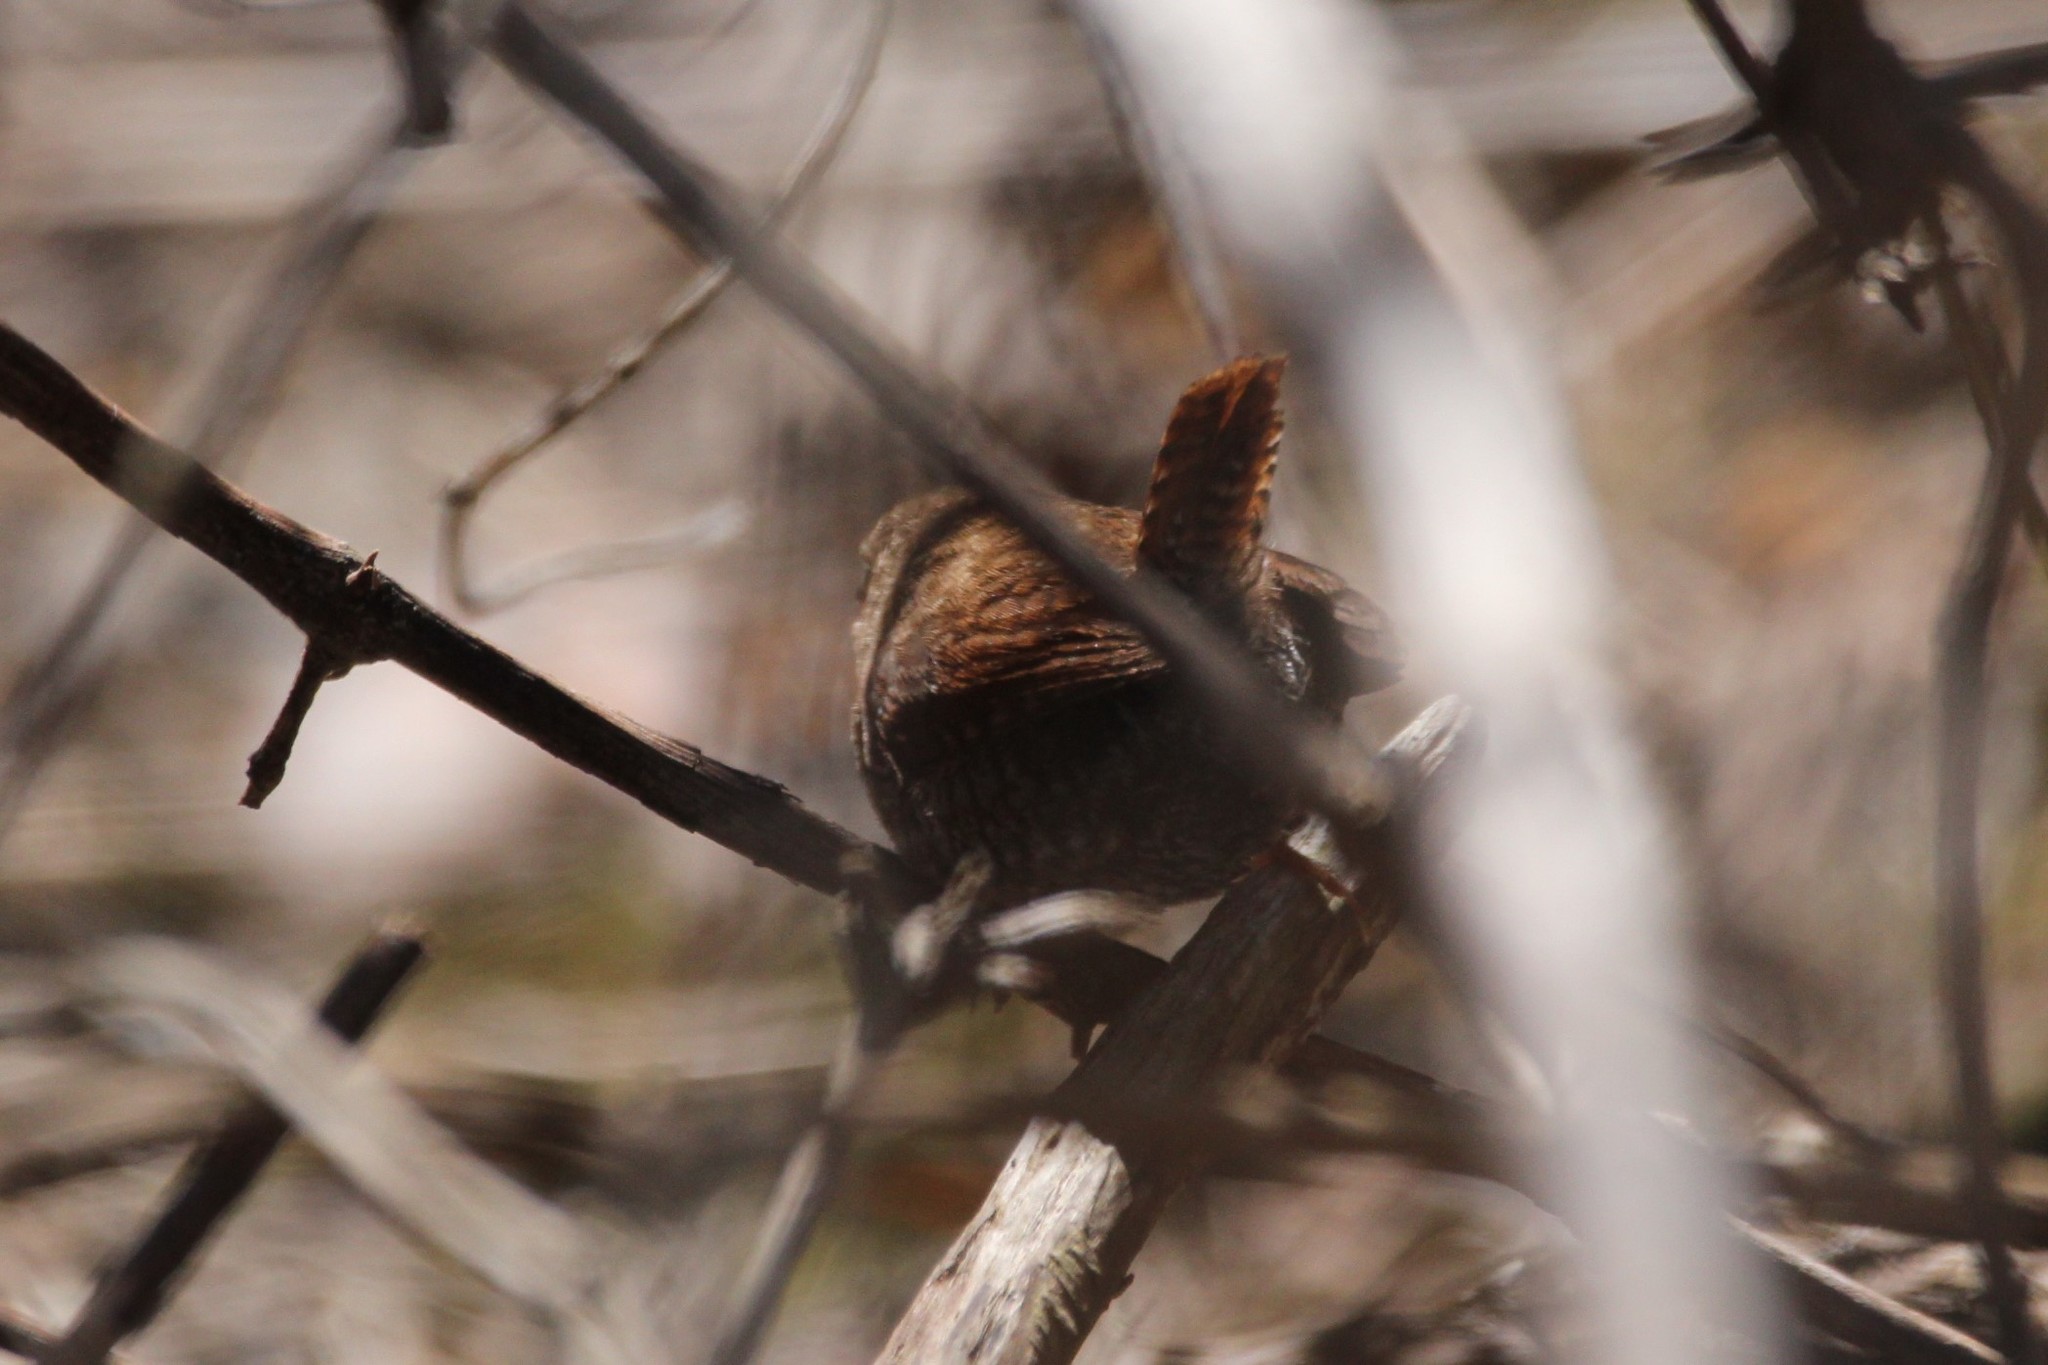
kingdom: Animalia
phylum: Chordata
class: Aves
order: Passeriformes
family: Troglodytidae
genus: Troglodytes
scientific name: Troglodytes hiemalis
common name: Winter wren
